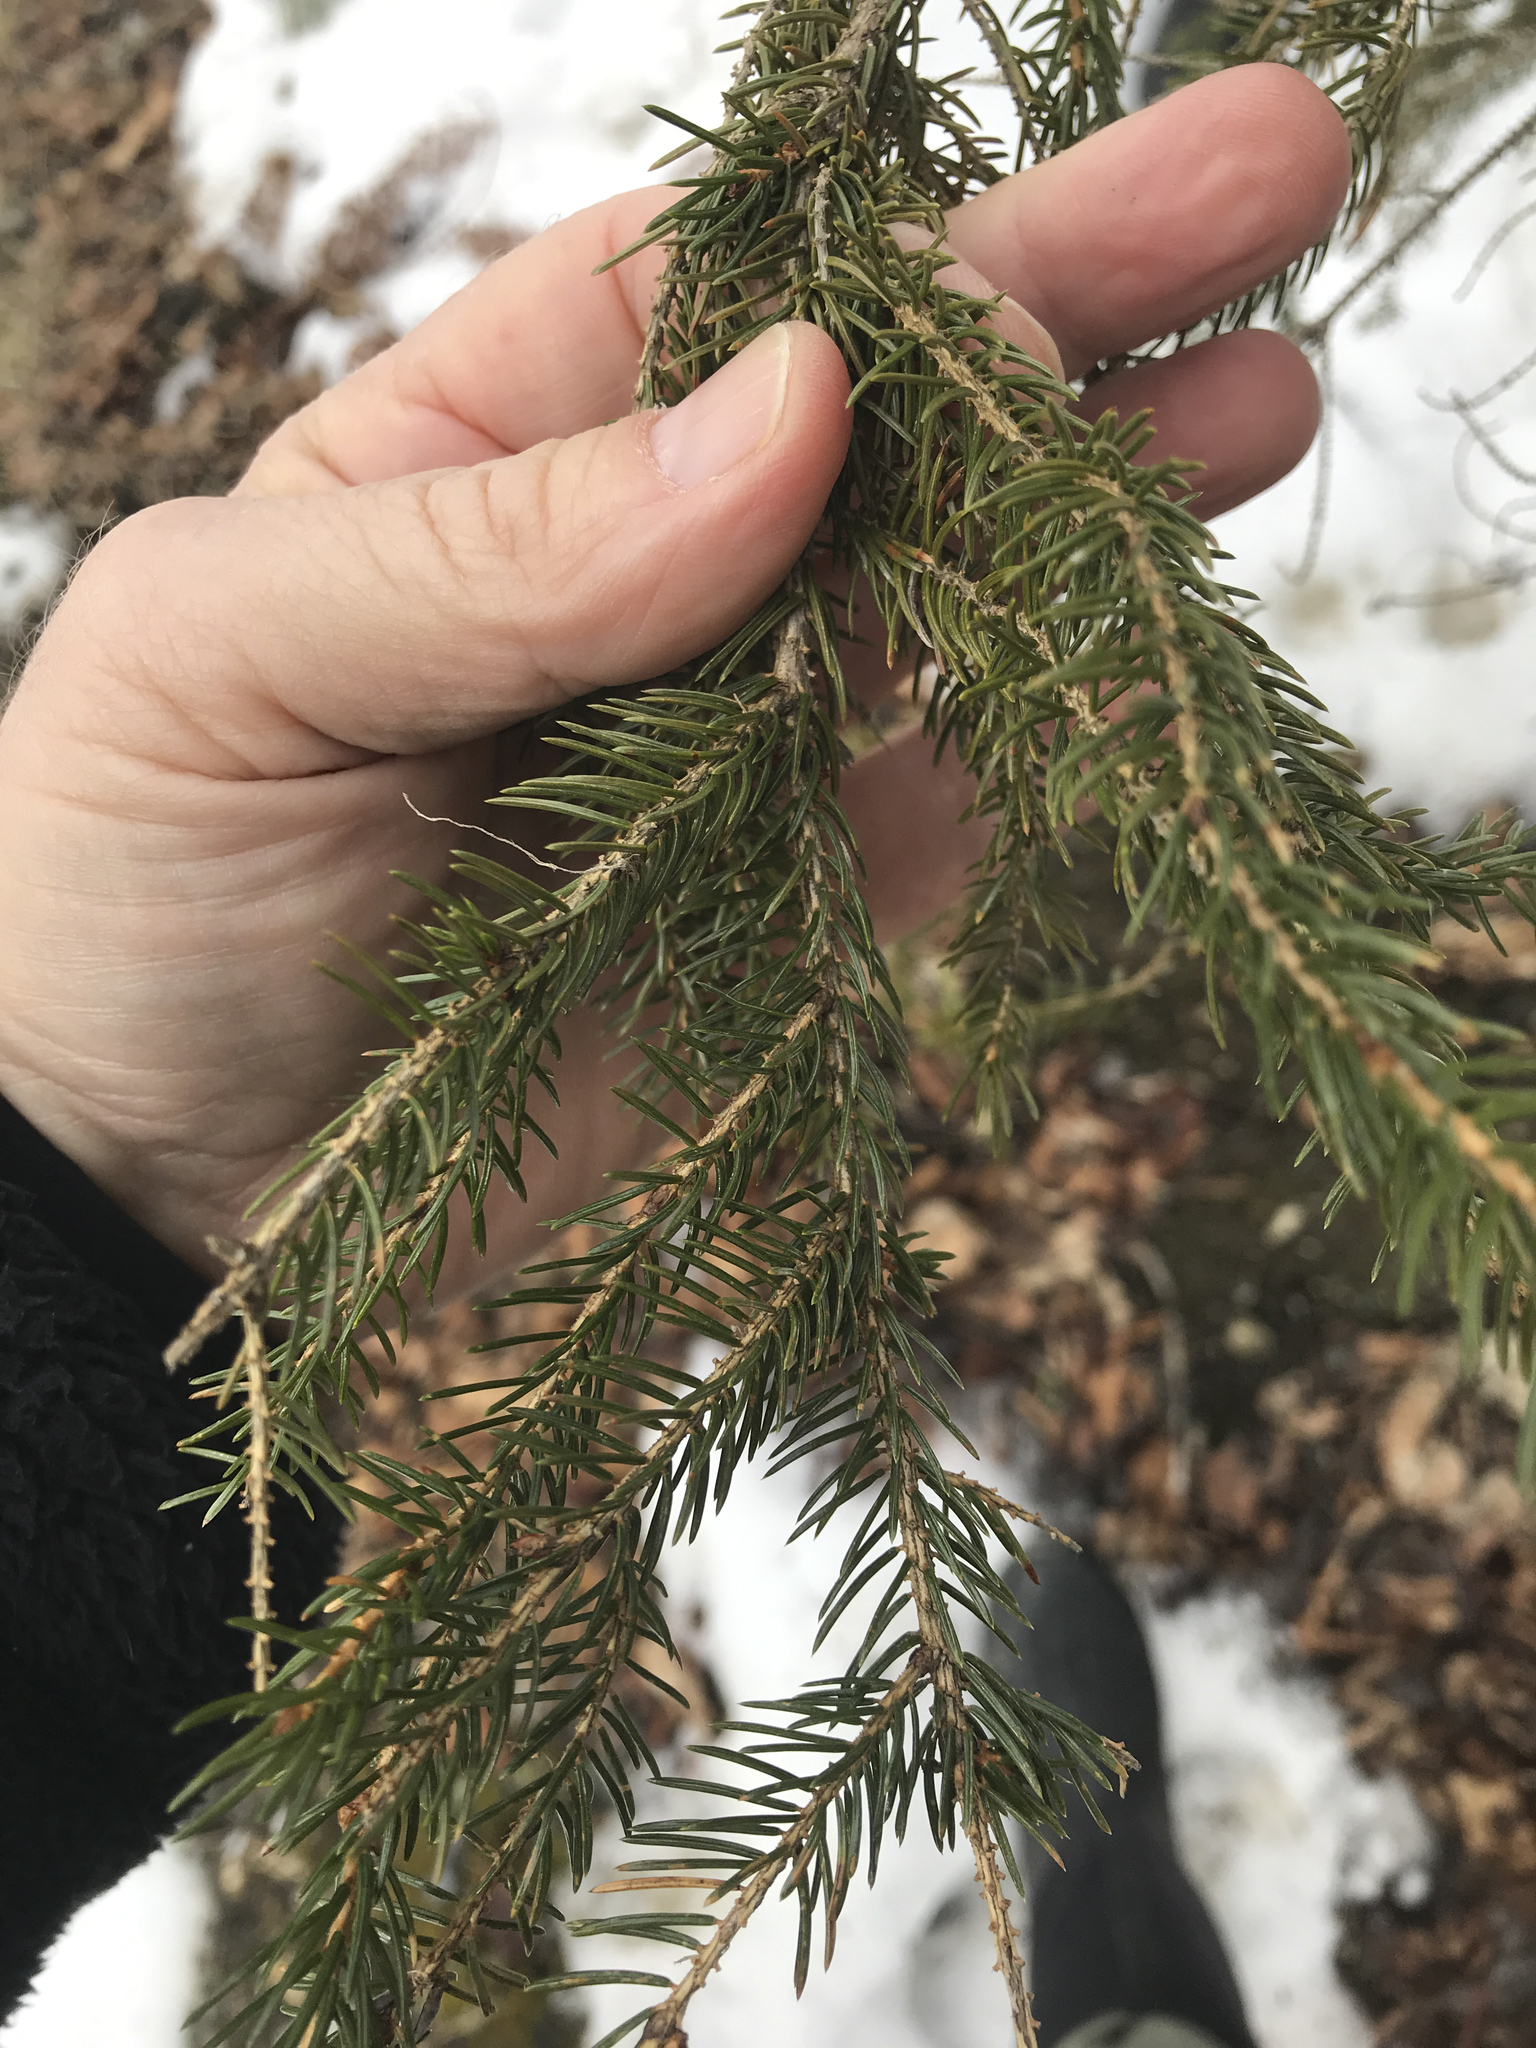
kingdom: Plantae
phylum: Tracheophyta
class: Pinopsida
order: Pinales
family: Pinaceae
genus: Picea
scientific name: Picea rubens
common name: Red spruce
